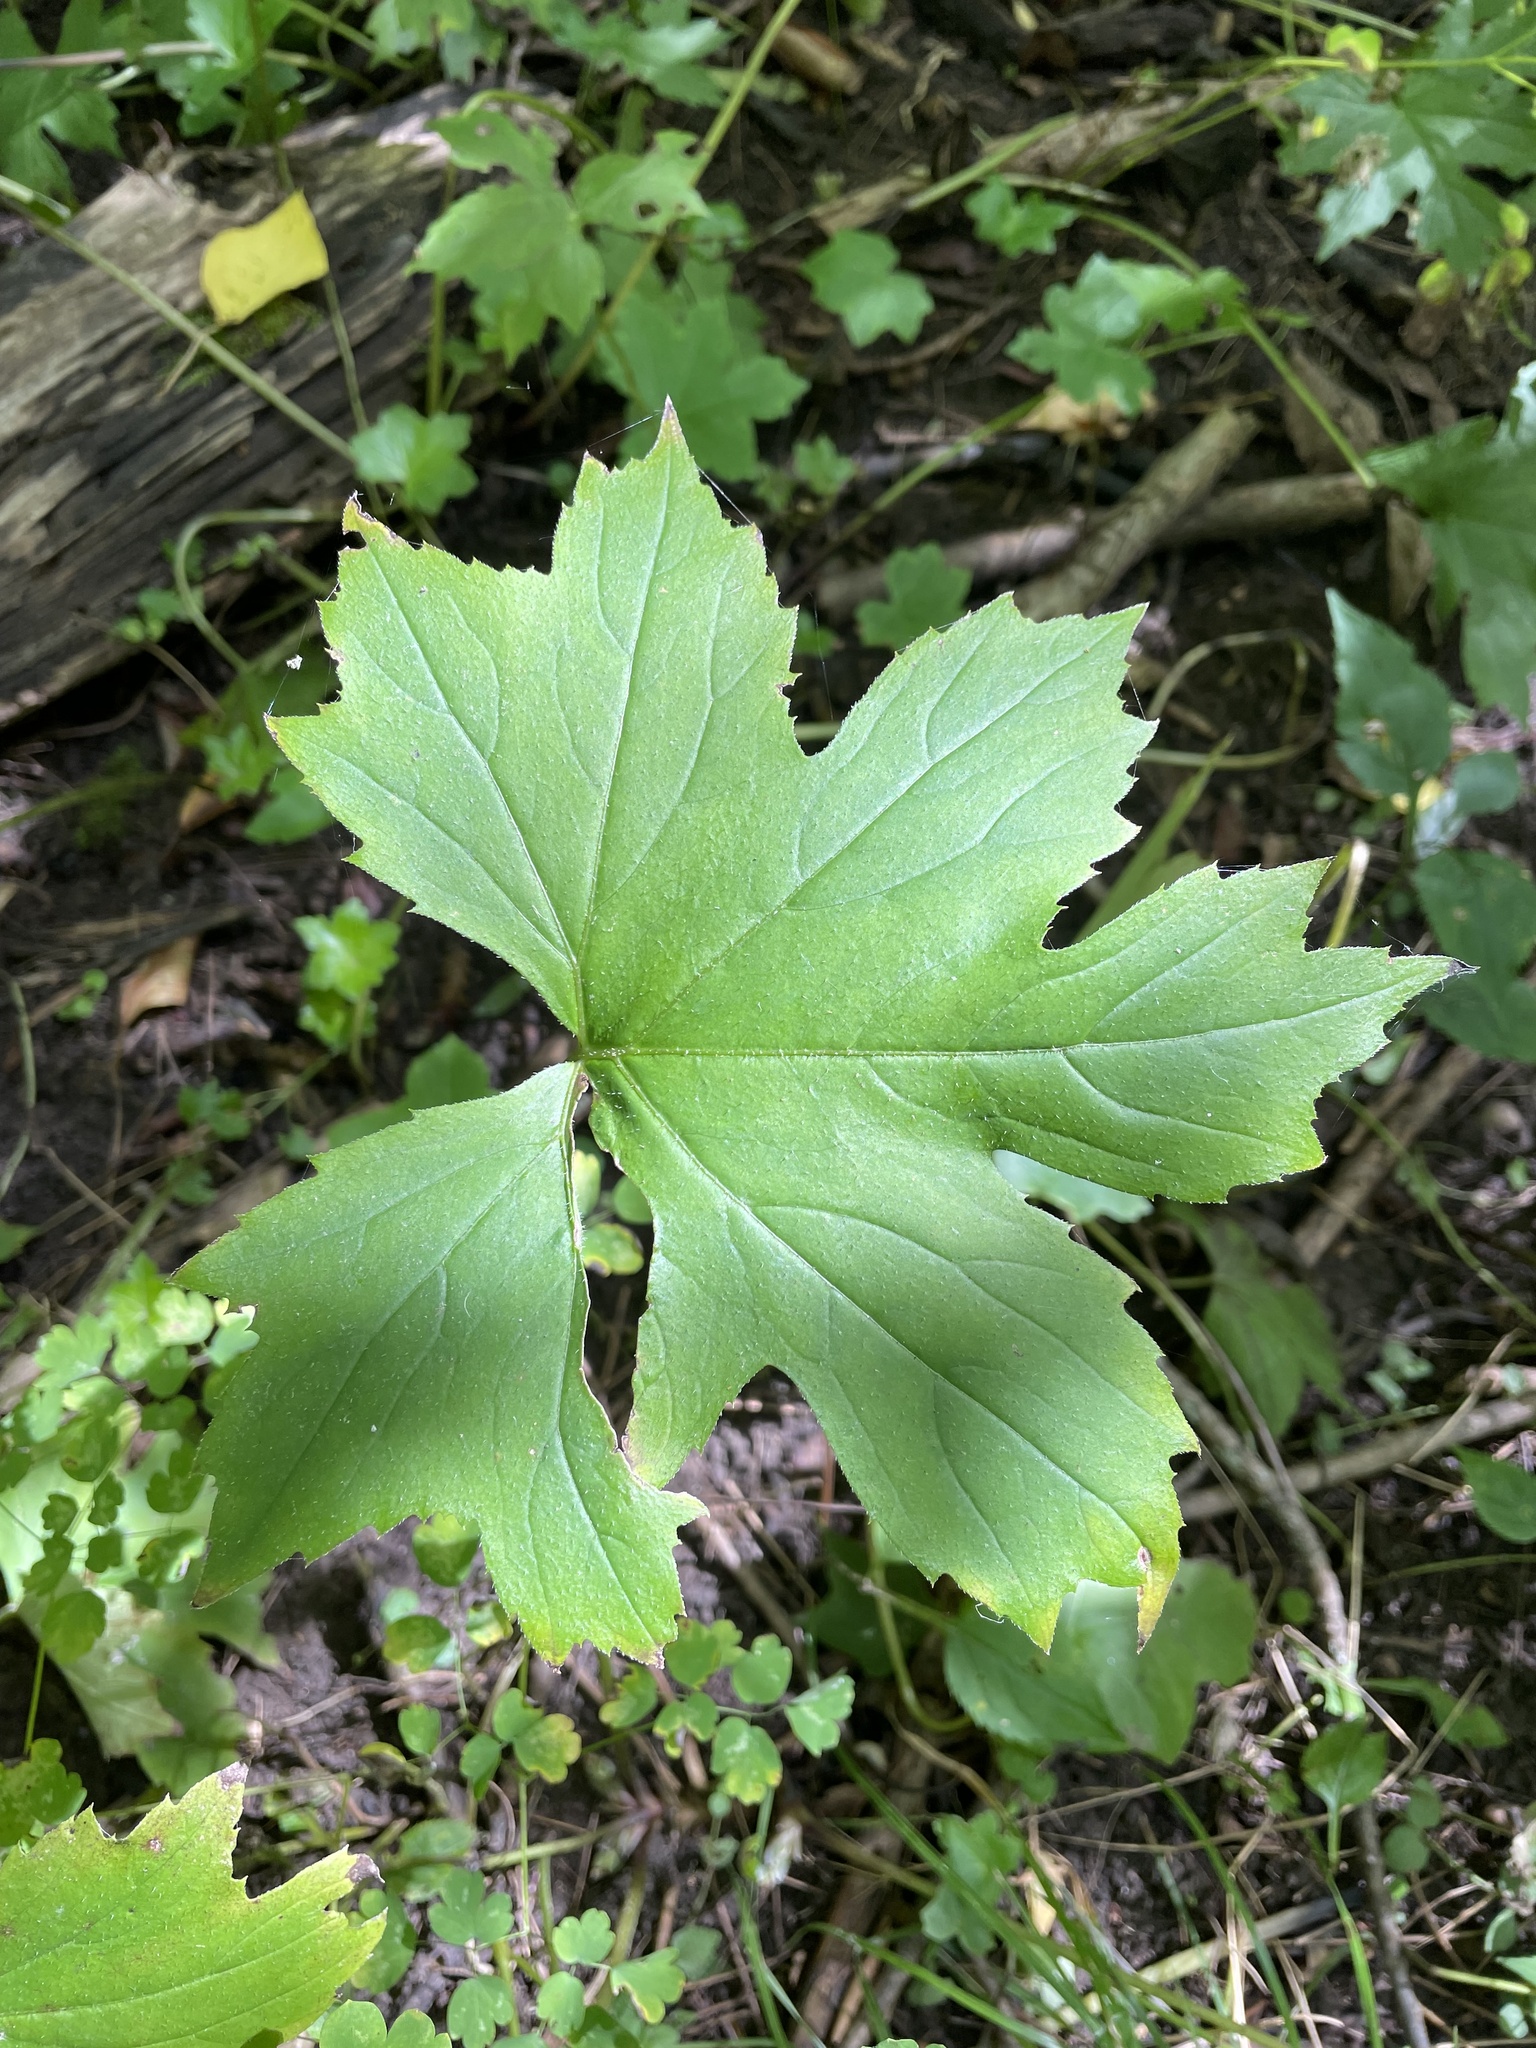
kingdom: Plantae
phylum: Tracheophyta
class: Magnoliopsida
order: Boraginales
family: Hydrophyllaceae
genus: Hydrophyllum
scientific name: Hydrophyllum canadense
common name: Canada waterleaf
